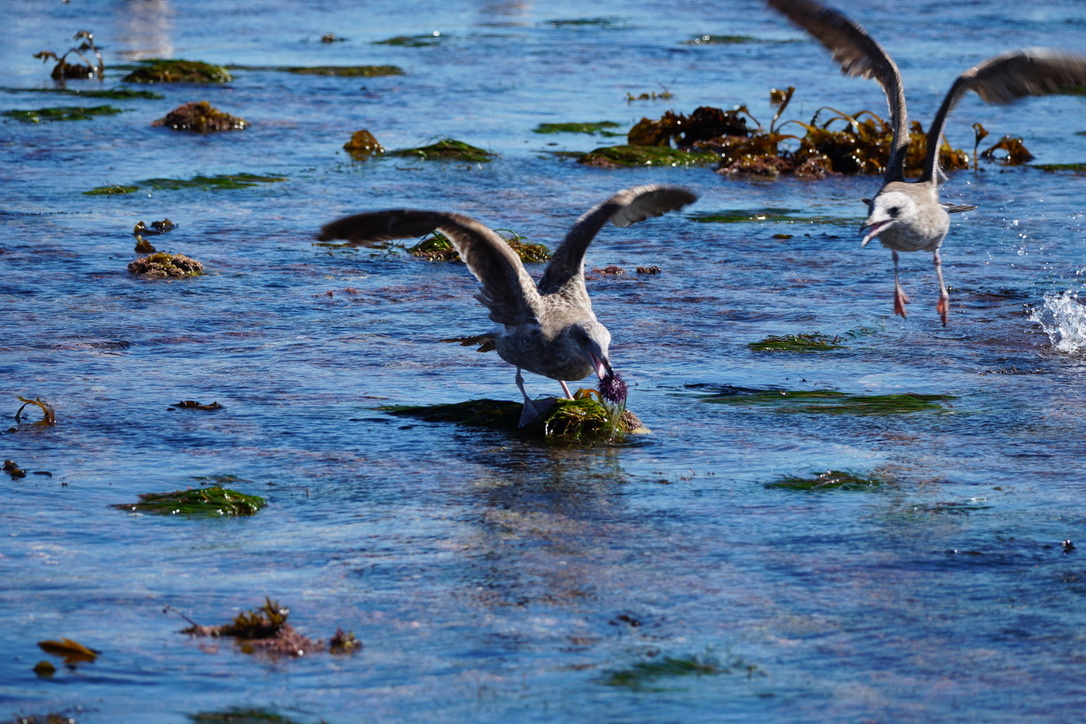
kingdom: Animalia
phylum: Chordata
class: Aves
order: Charadriiformes
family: Laridae
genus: Larus
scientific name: Larus occidentalis
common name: Western gull
